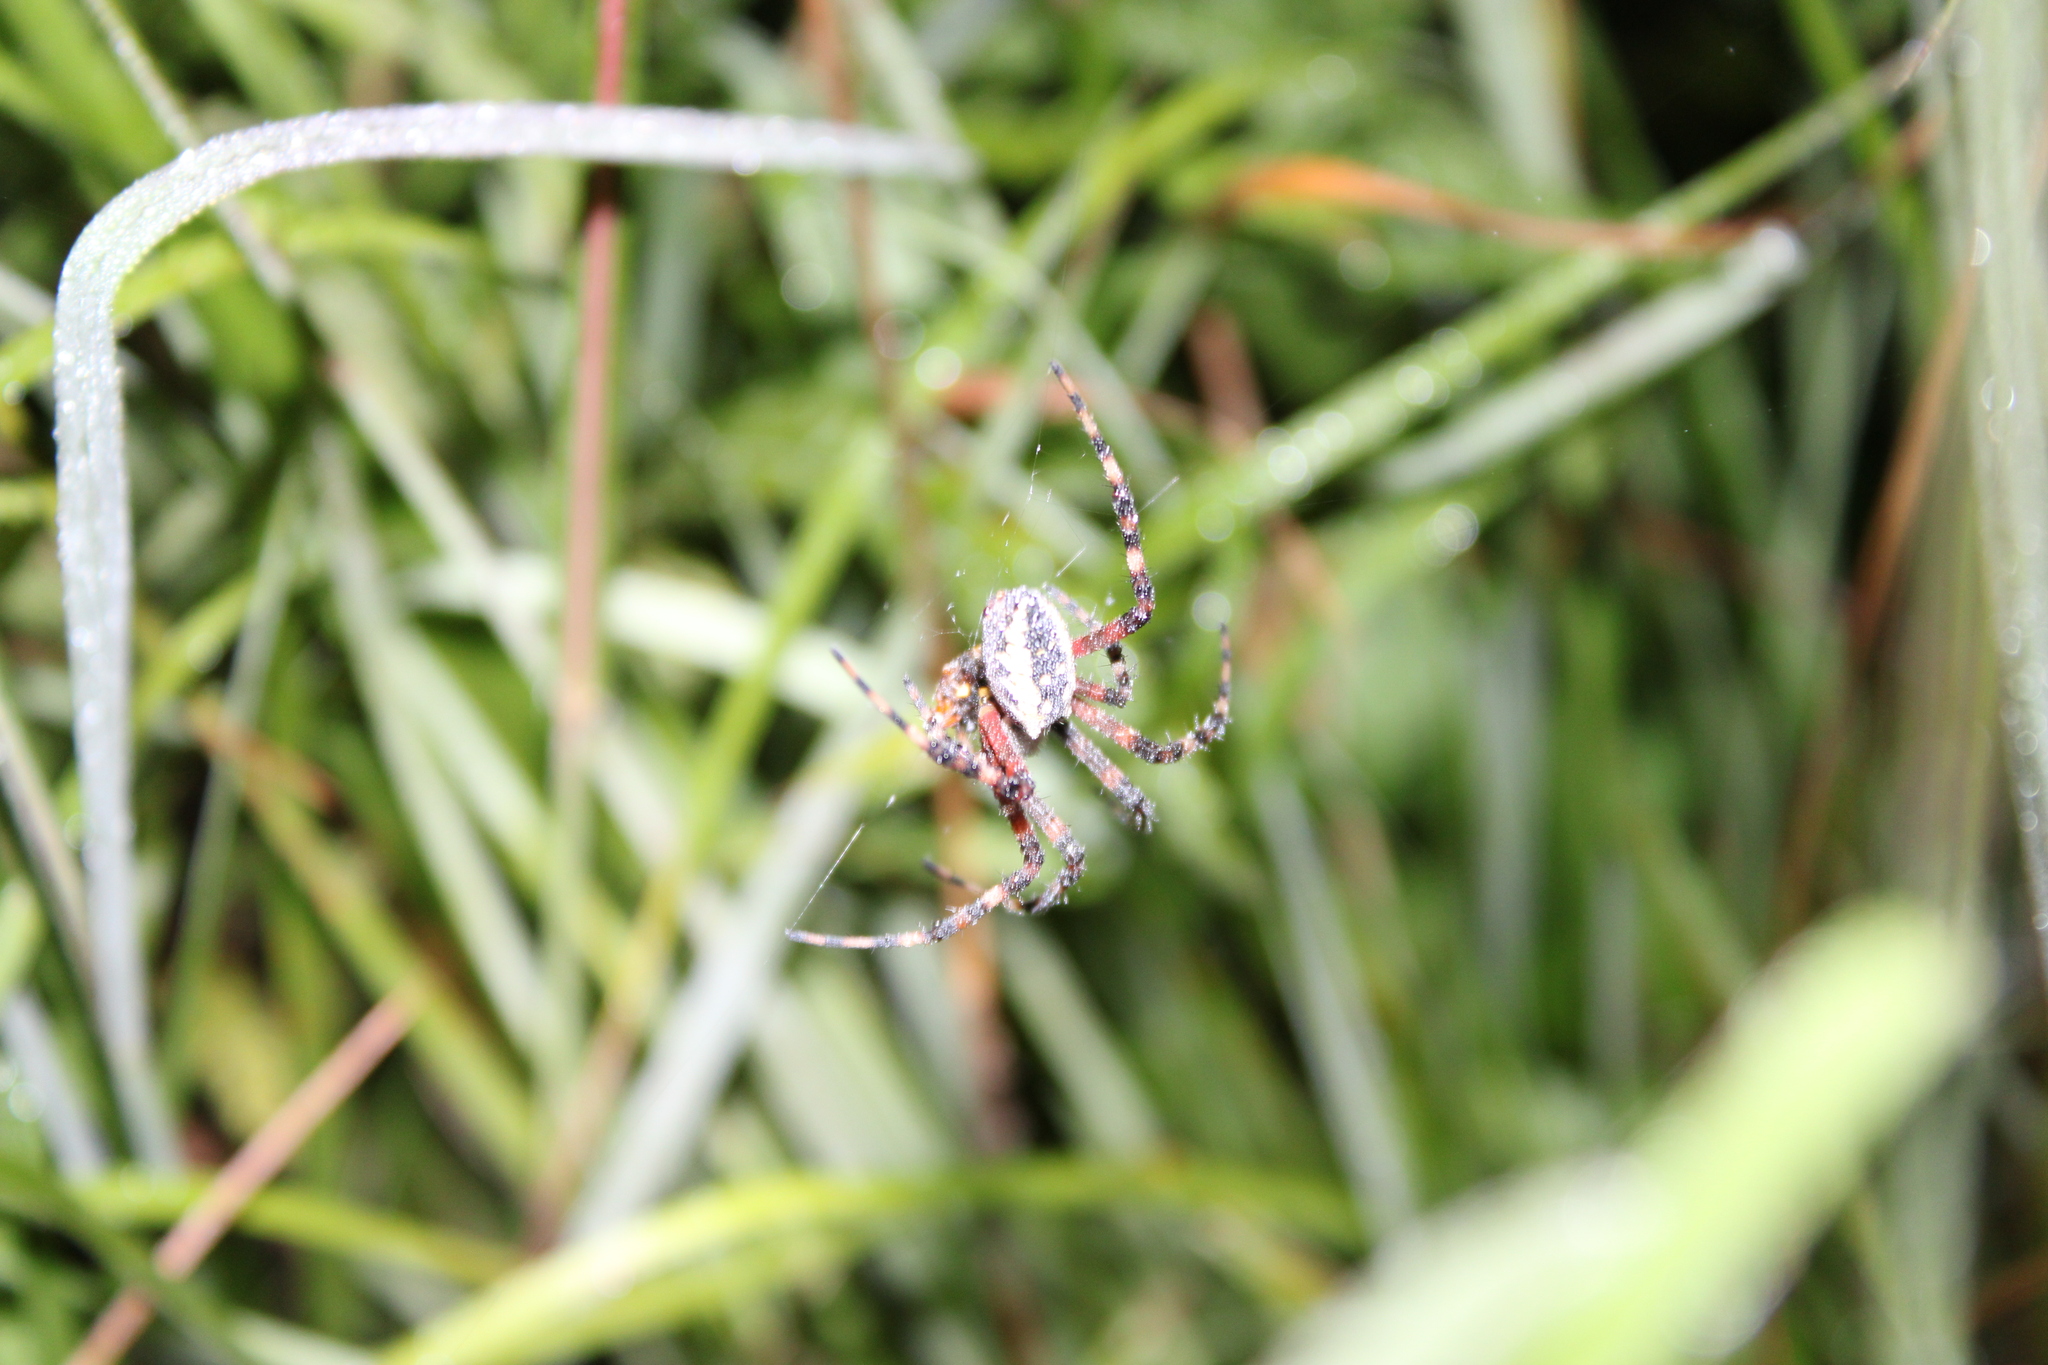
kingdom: Animalia
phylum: Arthropoda
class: Arachnida
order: Araneae
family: Araneidae
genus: Argiope
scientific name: Argiope aurantia
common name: Orb weavers
